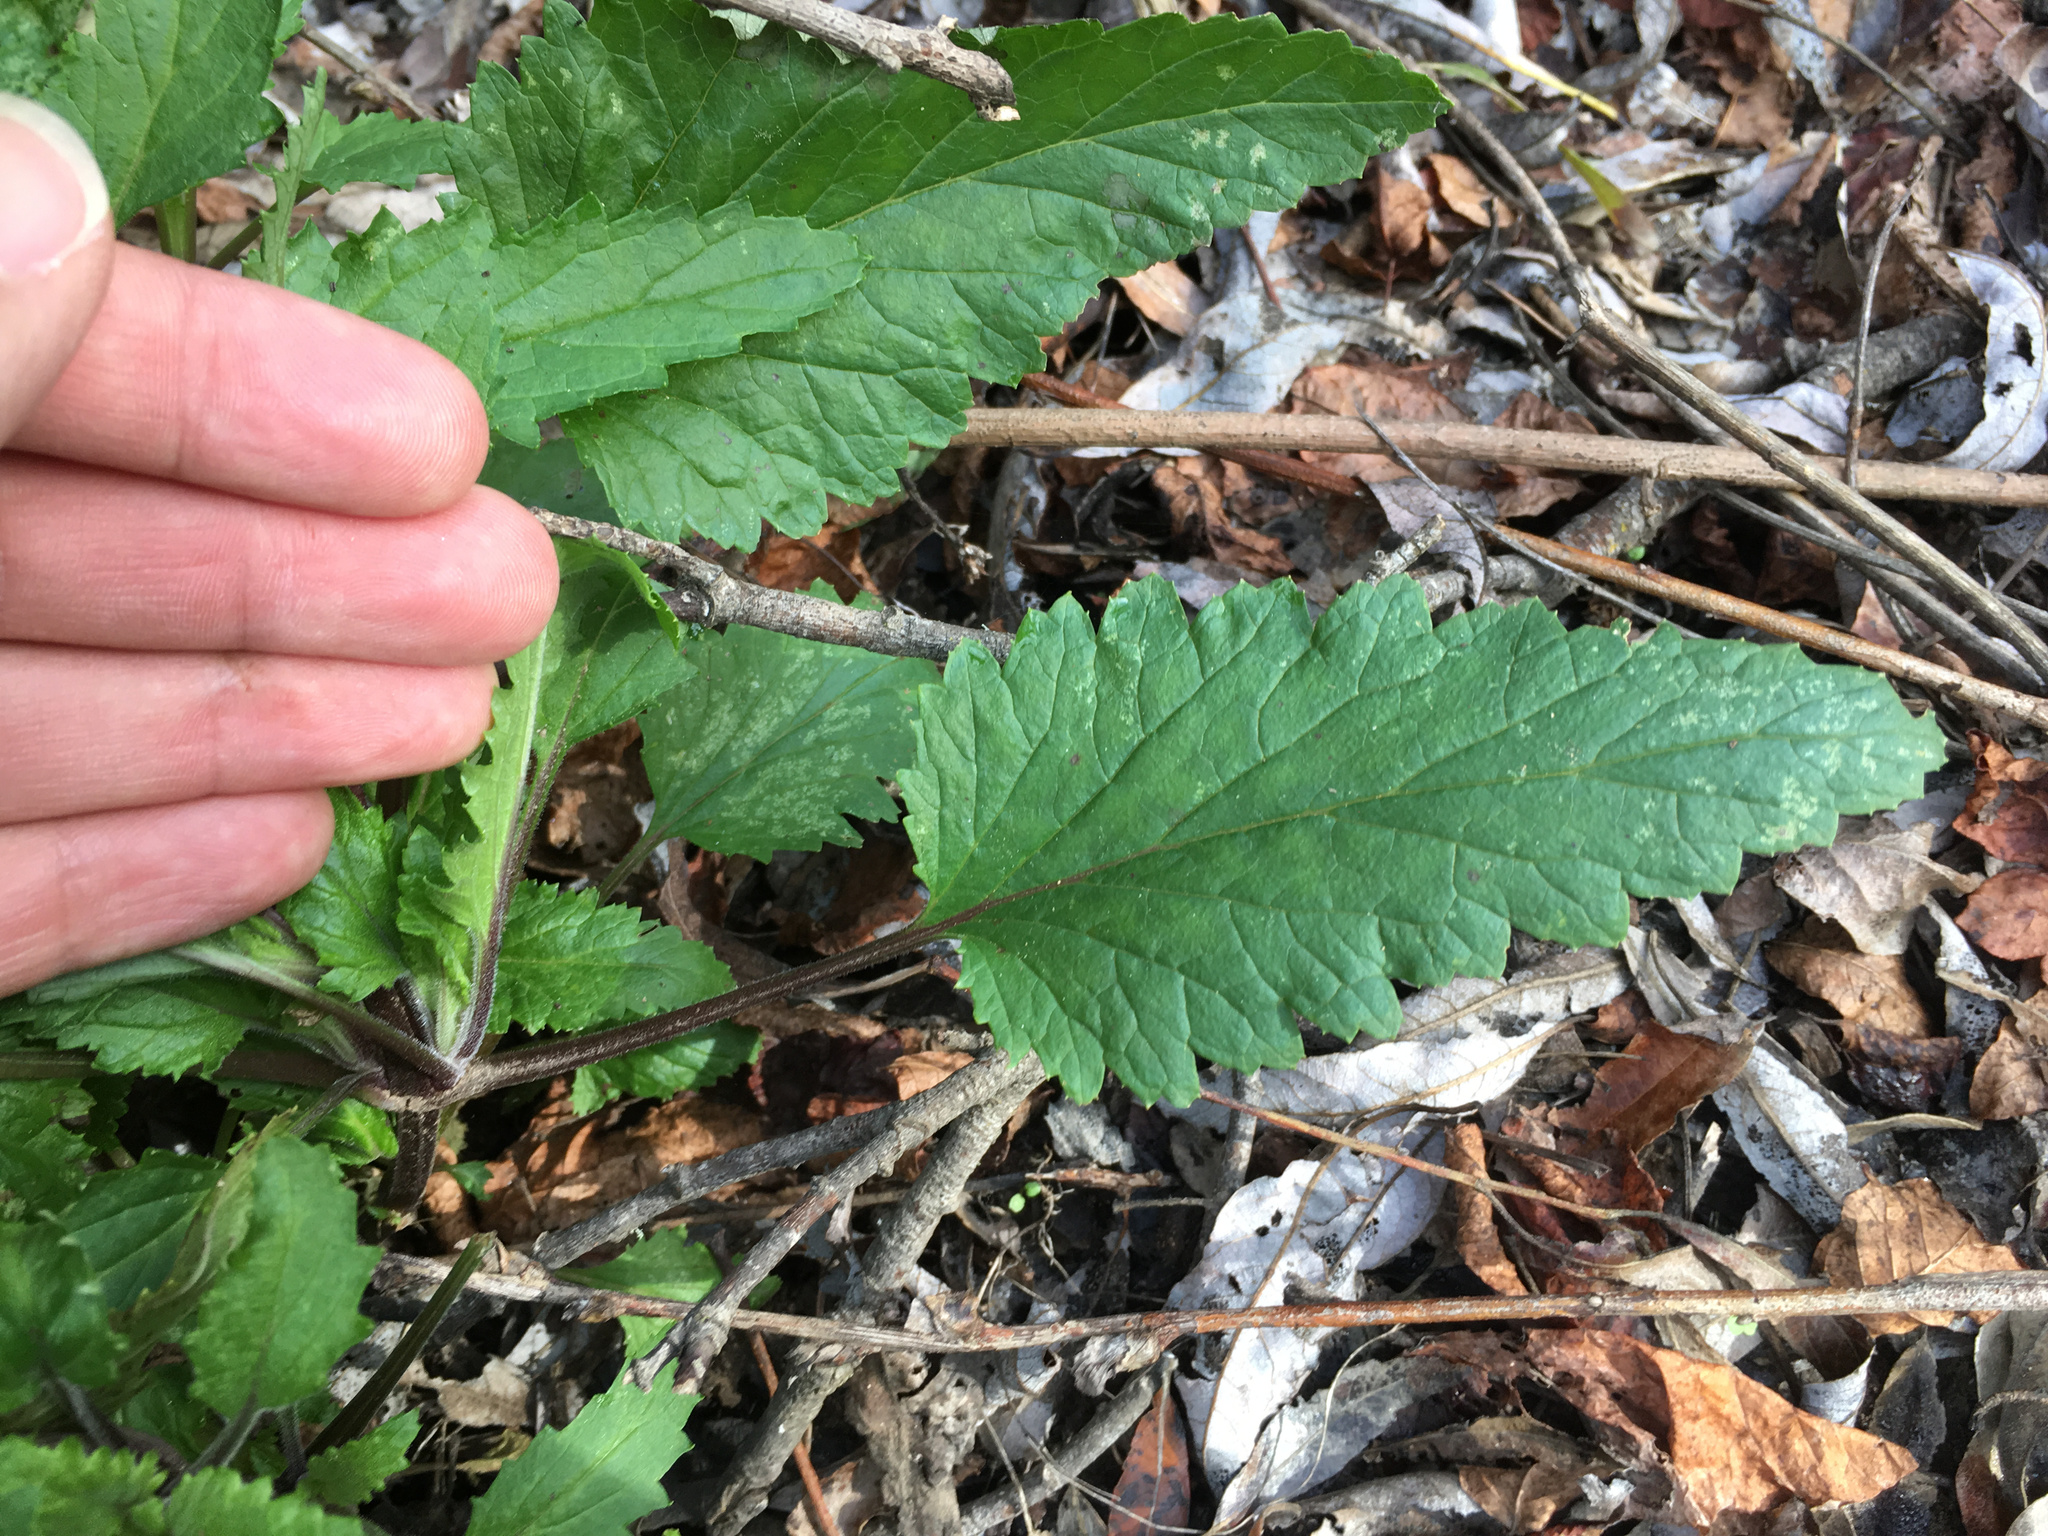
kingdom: Plantae
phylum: Tracheophyta
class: Magnoliopsida
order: Lamiales
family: Scrophulariaceae
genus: Scrophularia
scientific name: Scrophularia californica
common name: California figwort
